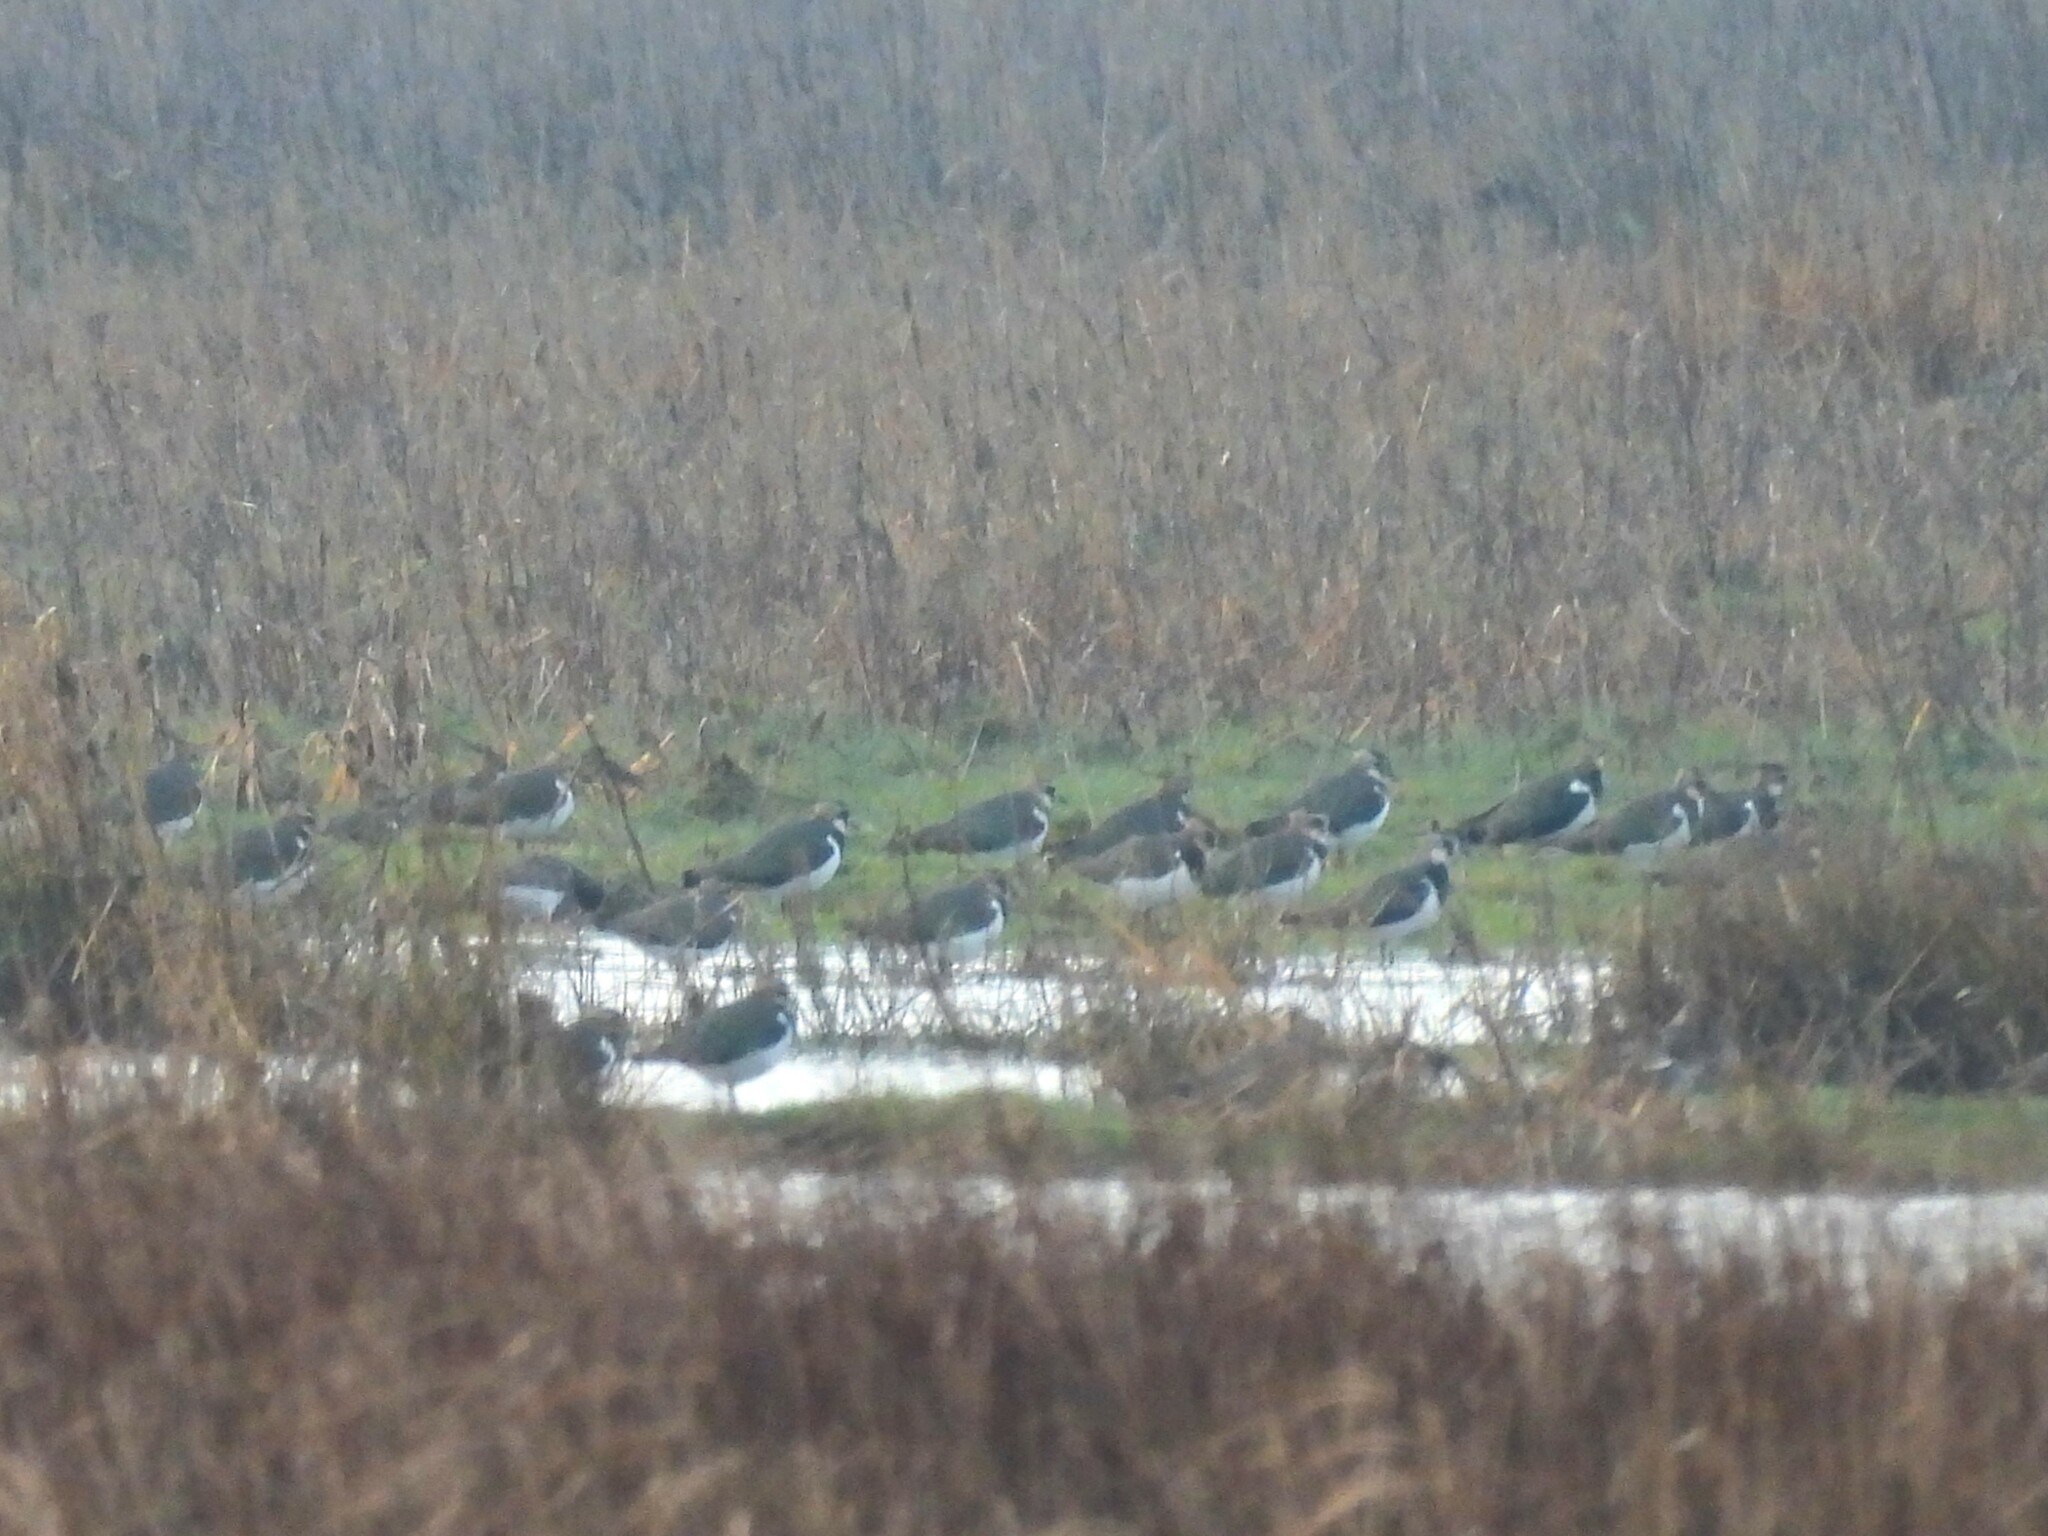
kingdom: Animalia
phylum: Chordata
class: Aves
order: Charadriiformes
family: Charadriidae
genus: Vanellus
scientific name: Vanellus vanellus
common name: Northern lapwing
